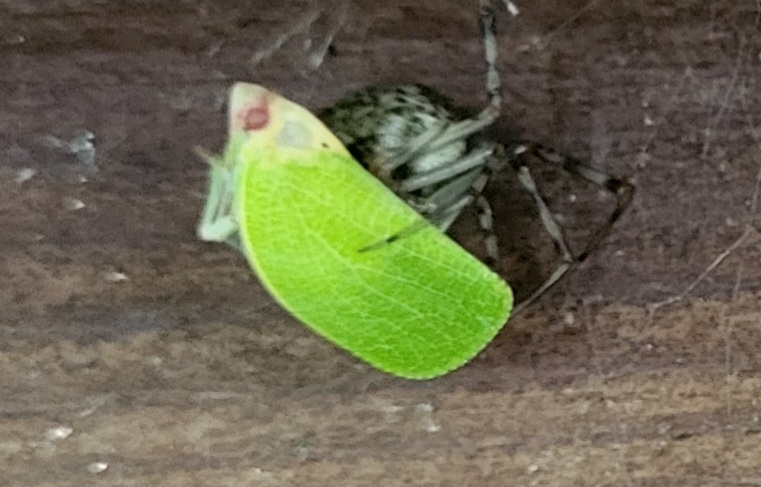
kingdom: Animalia
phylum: Arthropoda
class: Insecta
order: Hemiptera
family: Acanaloniidae
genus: Acanalonia
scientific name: Acanalonia conica
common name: Green cone-headed planthopper
